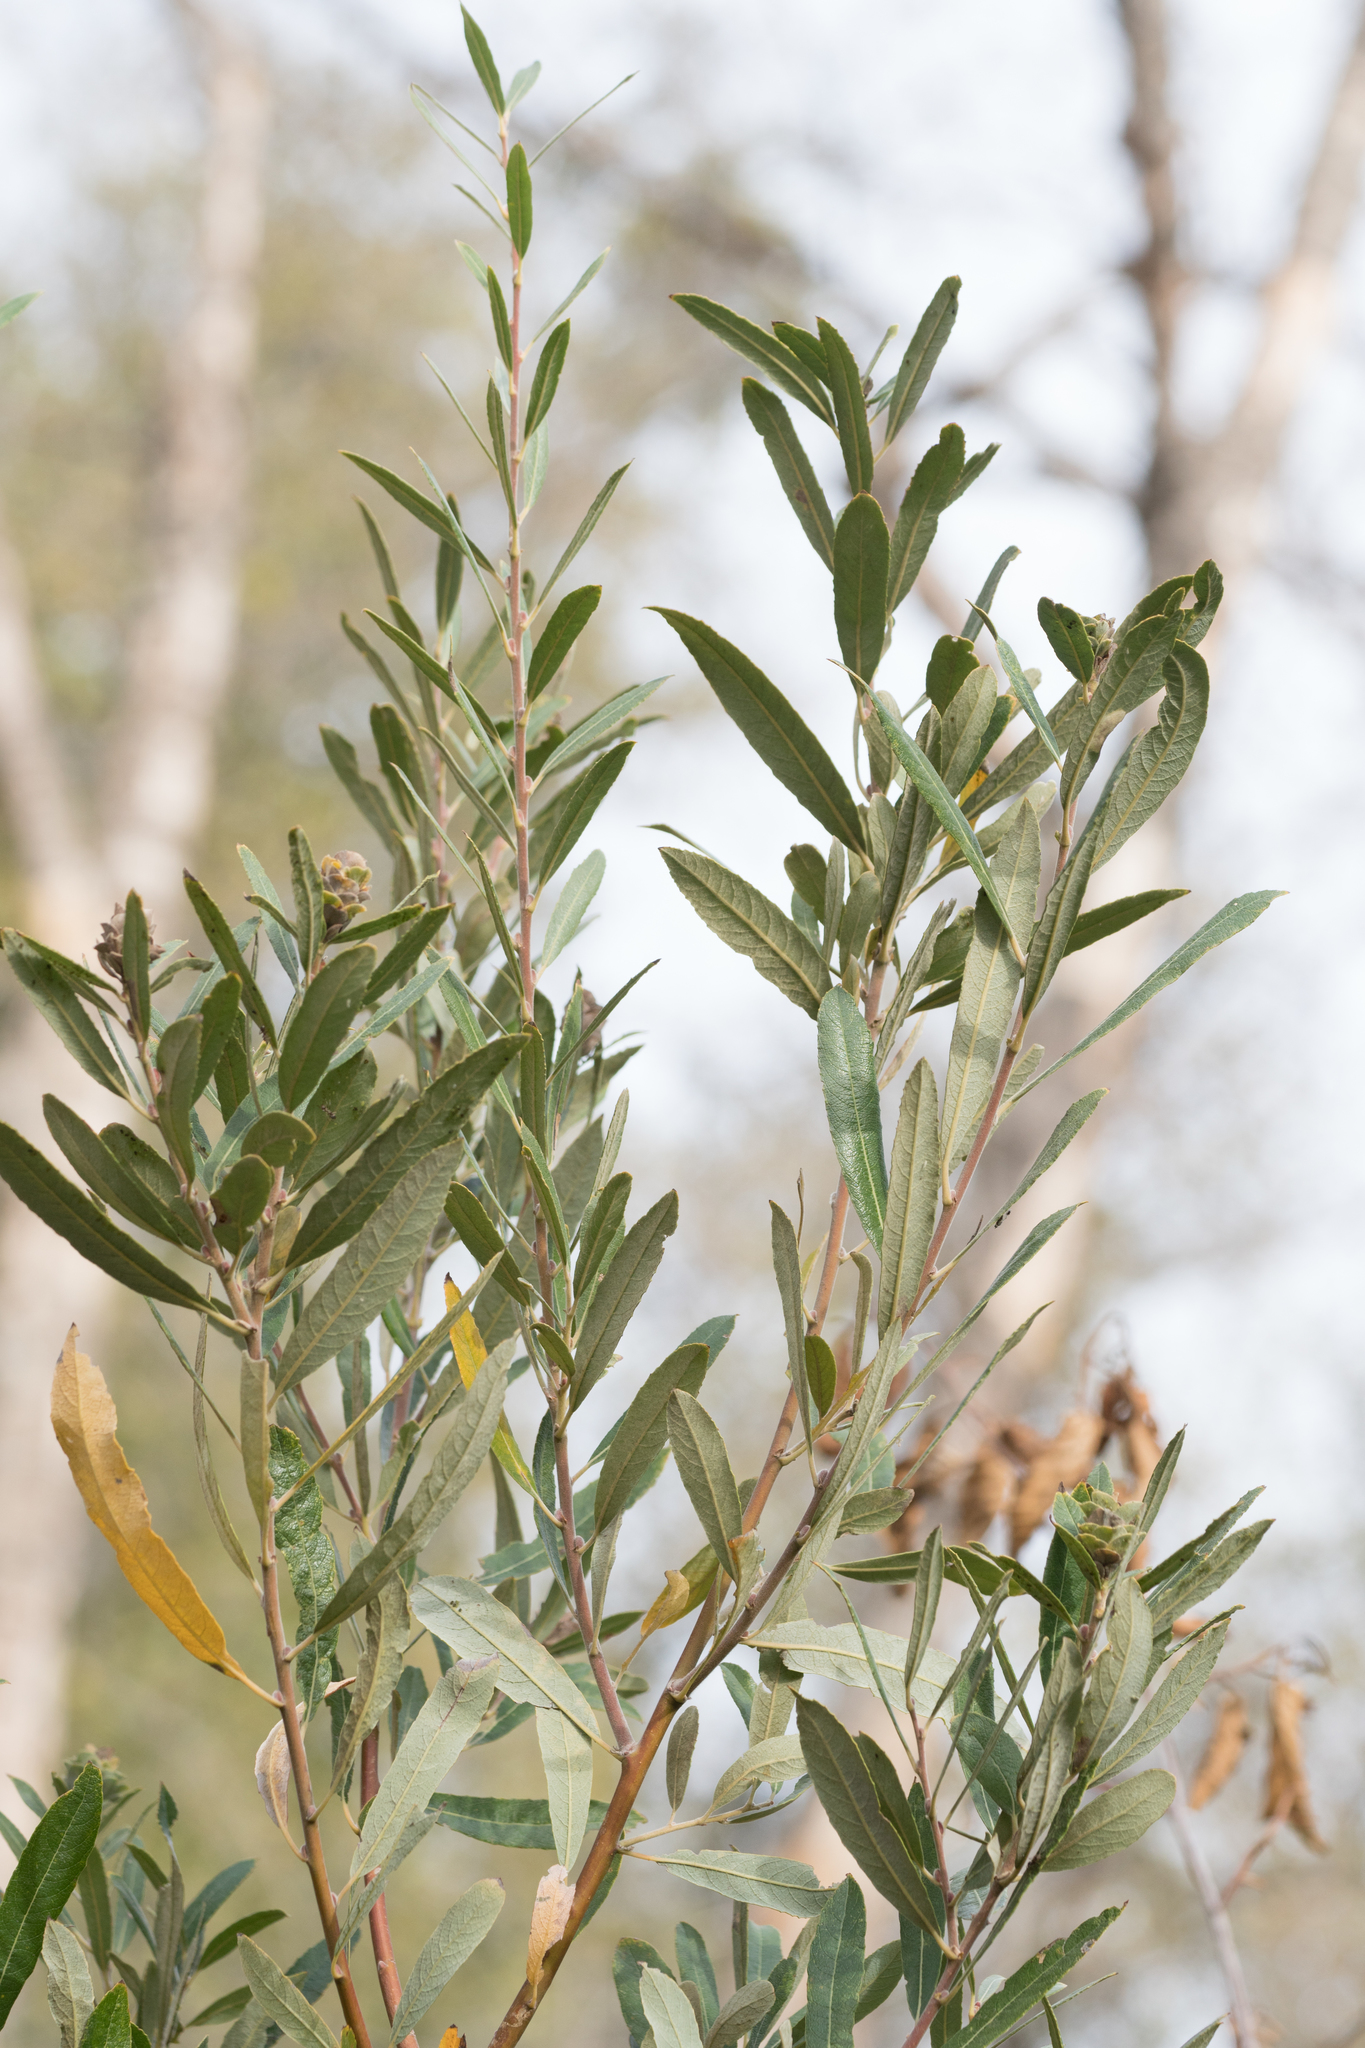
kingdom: Plantae
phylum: Tracheophyta
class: Magnoliopsida
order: Malpighiales
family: Salicaceae
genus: Salix
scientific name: Salix lasiolepis
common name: Arroyo willow
